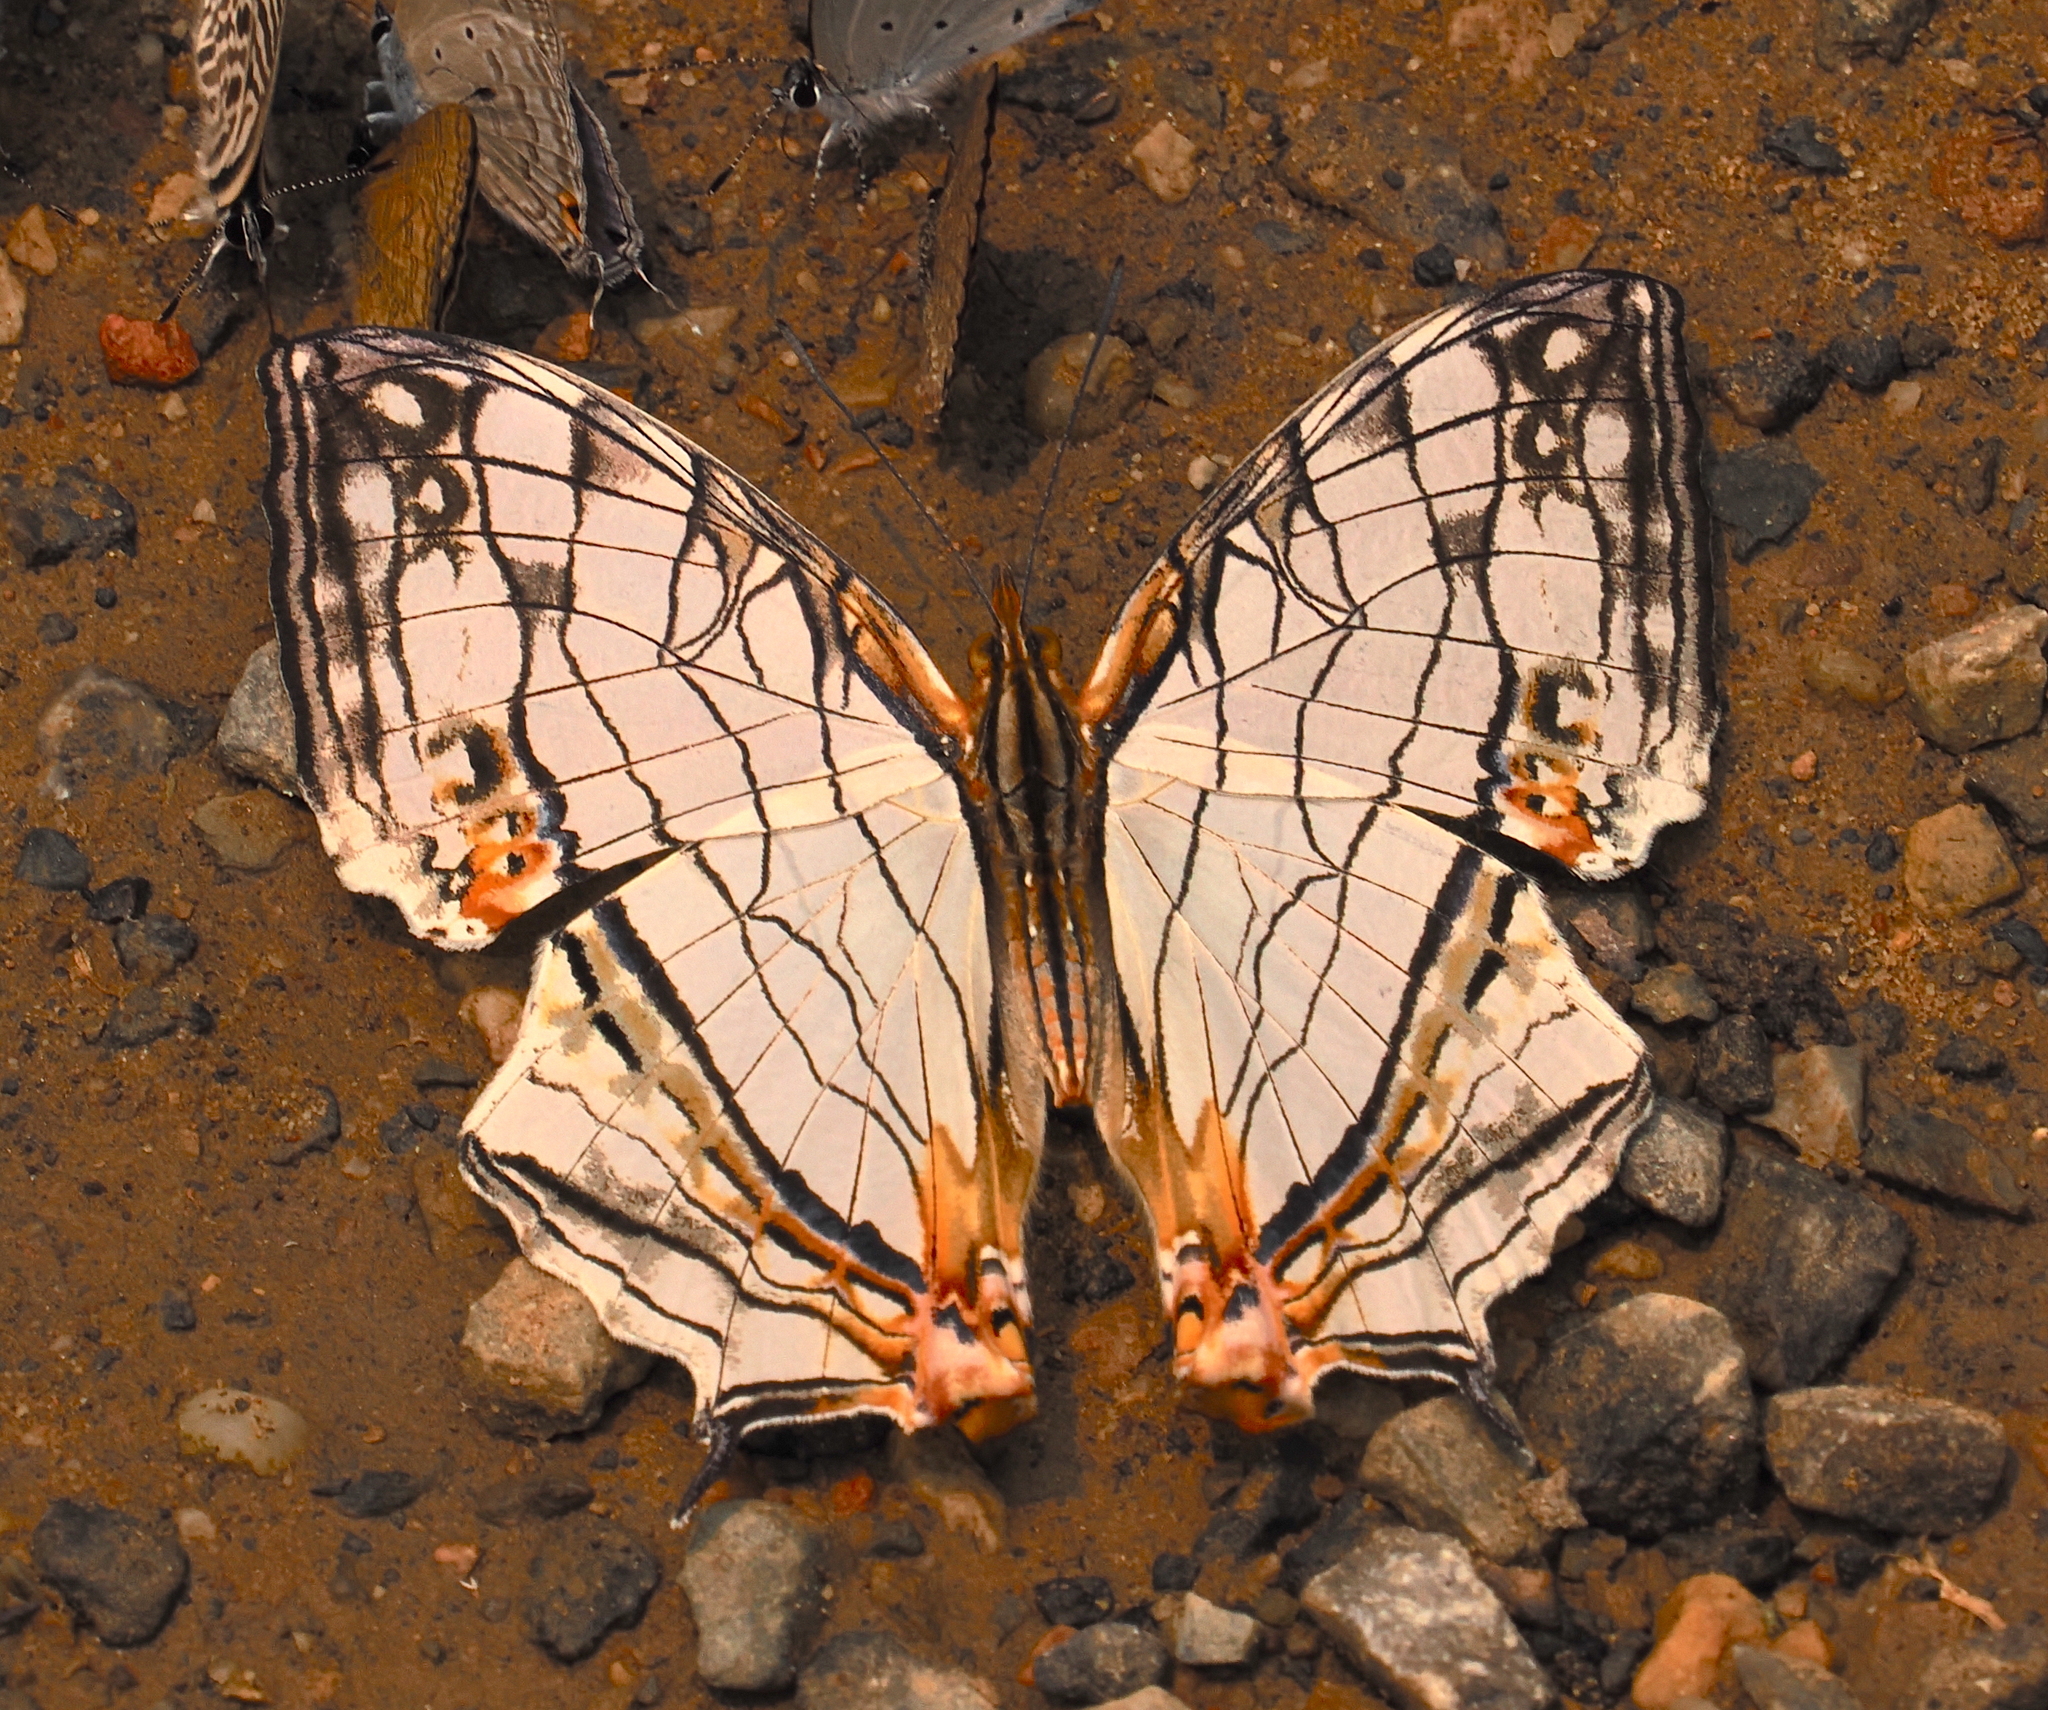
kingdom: Animalia
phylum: Arthropoda
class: Insecta
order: Lepidoptera
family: Nymphalidae
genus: Cyrestis
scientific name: Cyrestis thyodamas
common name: Common mapwing
